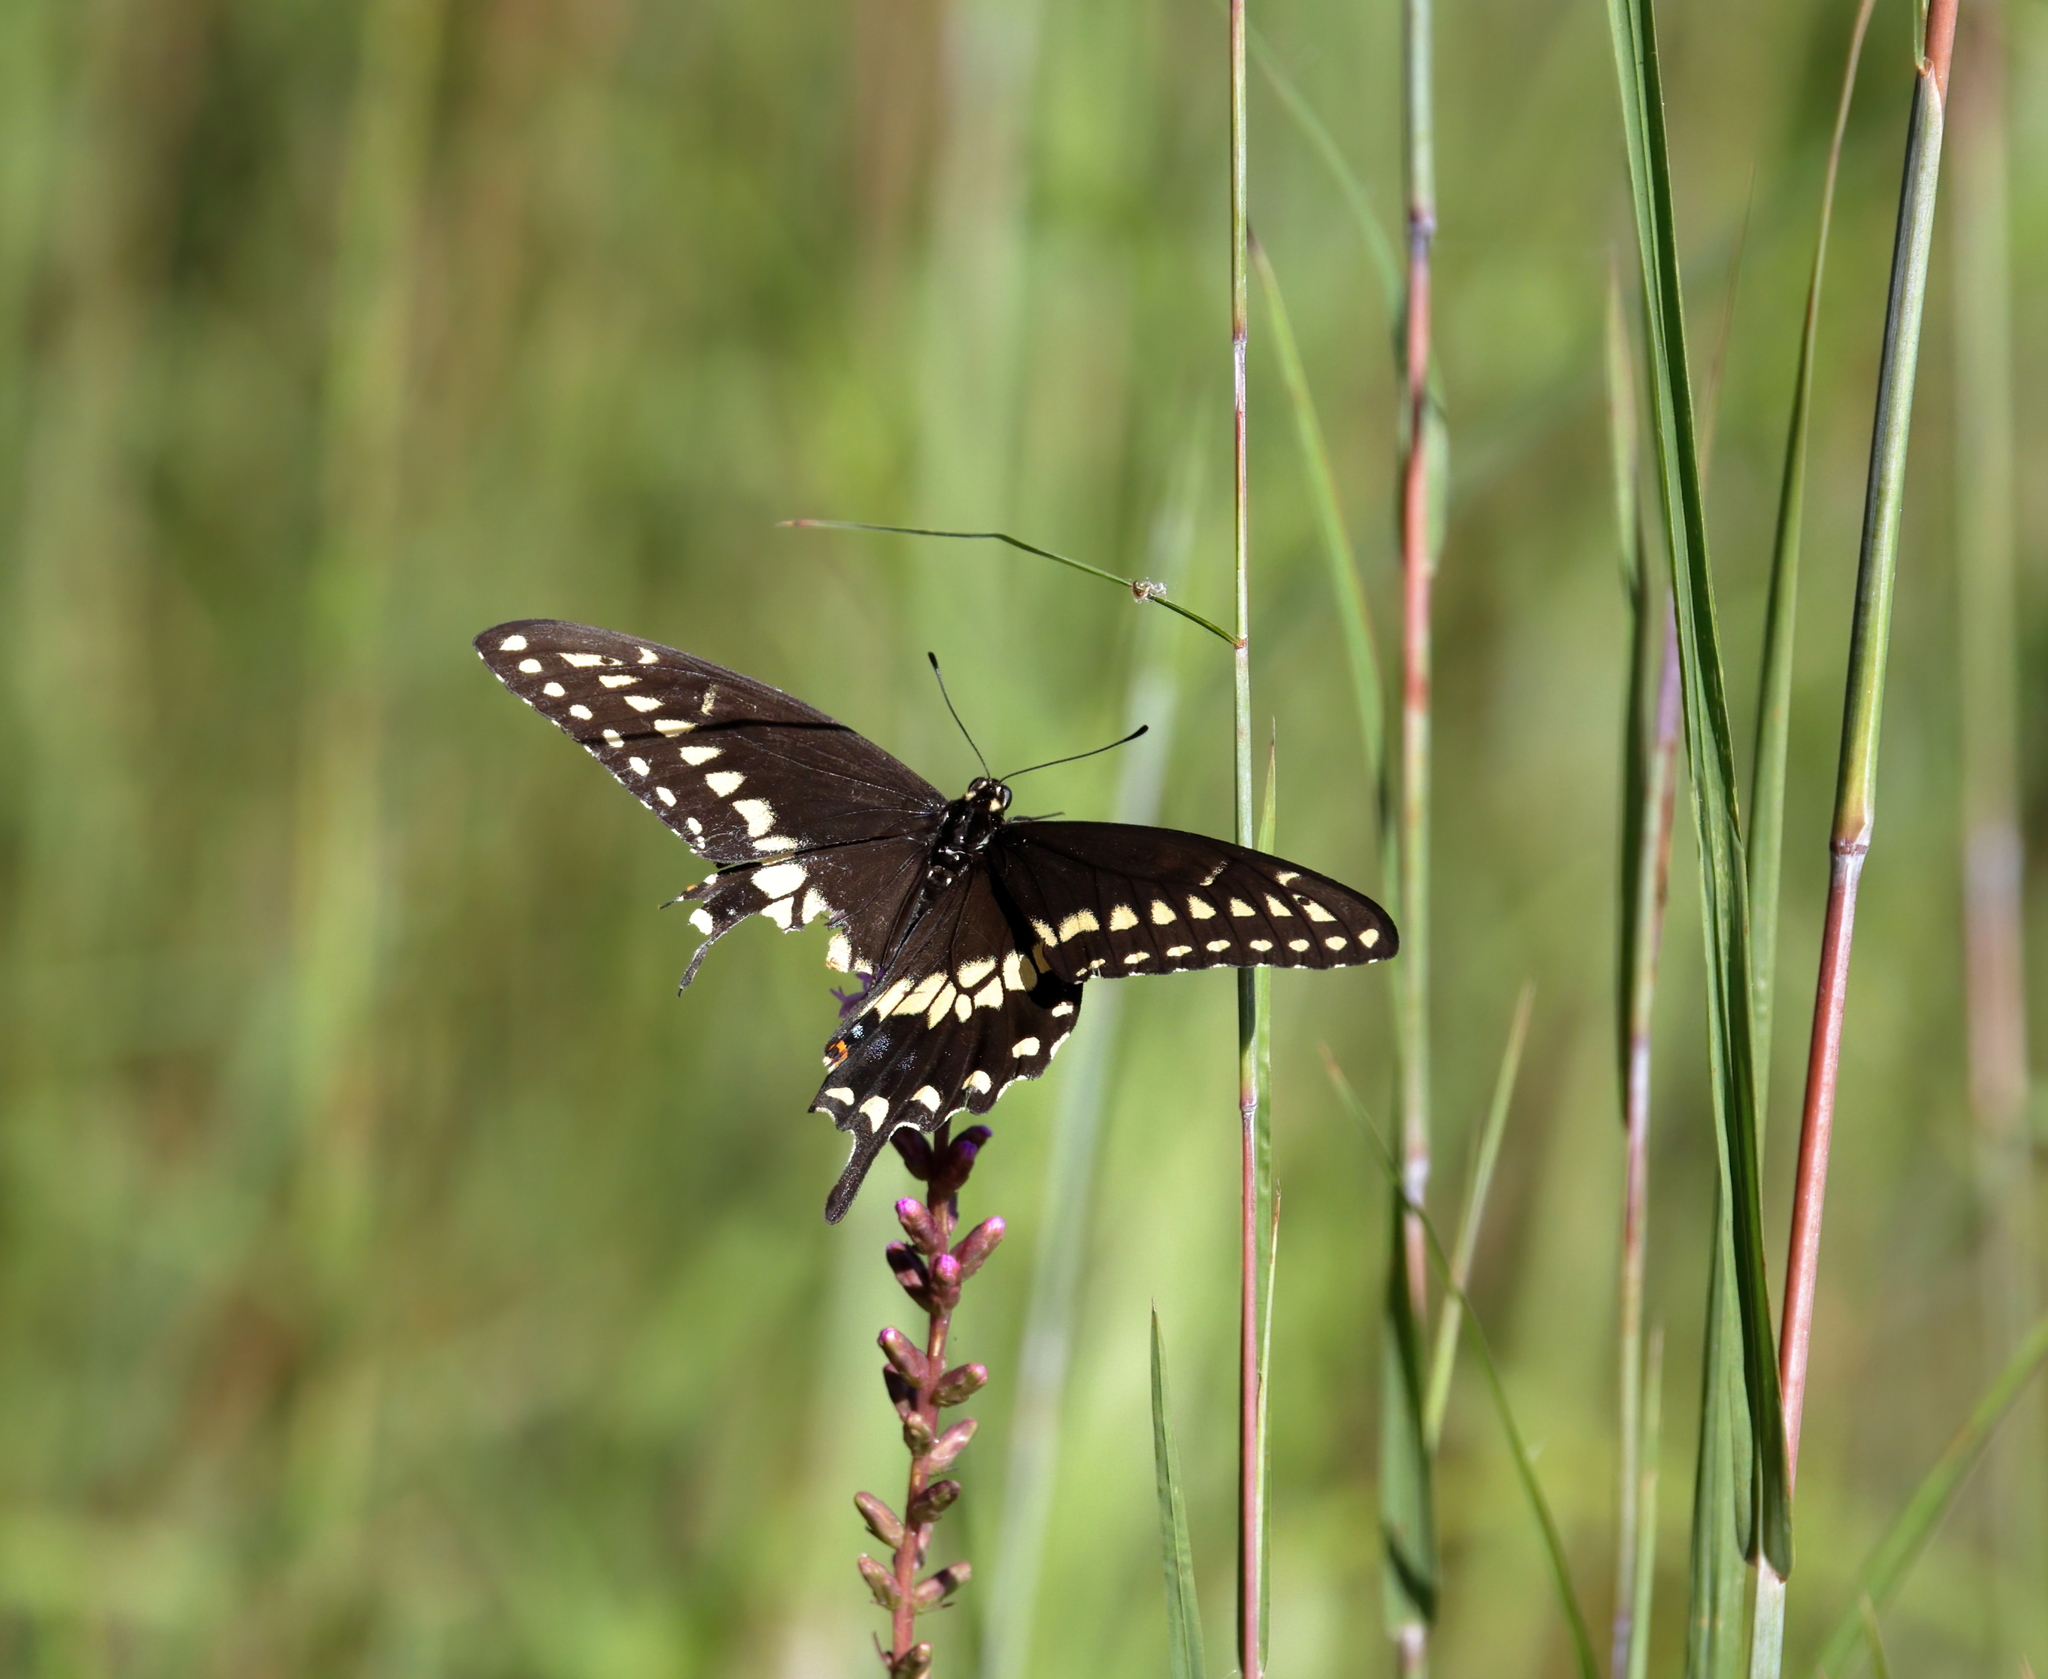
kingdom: Animalia
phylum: Arthropoda
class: Insecta
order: Lepidoptera
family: Papilionidae
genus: Papilio
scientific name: Papilio polyxenes
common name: Black swallowtail
